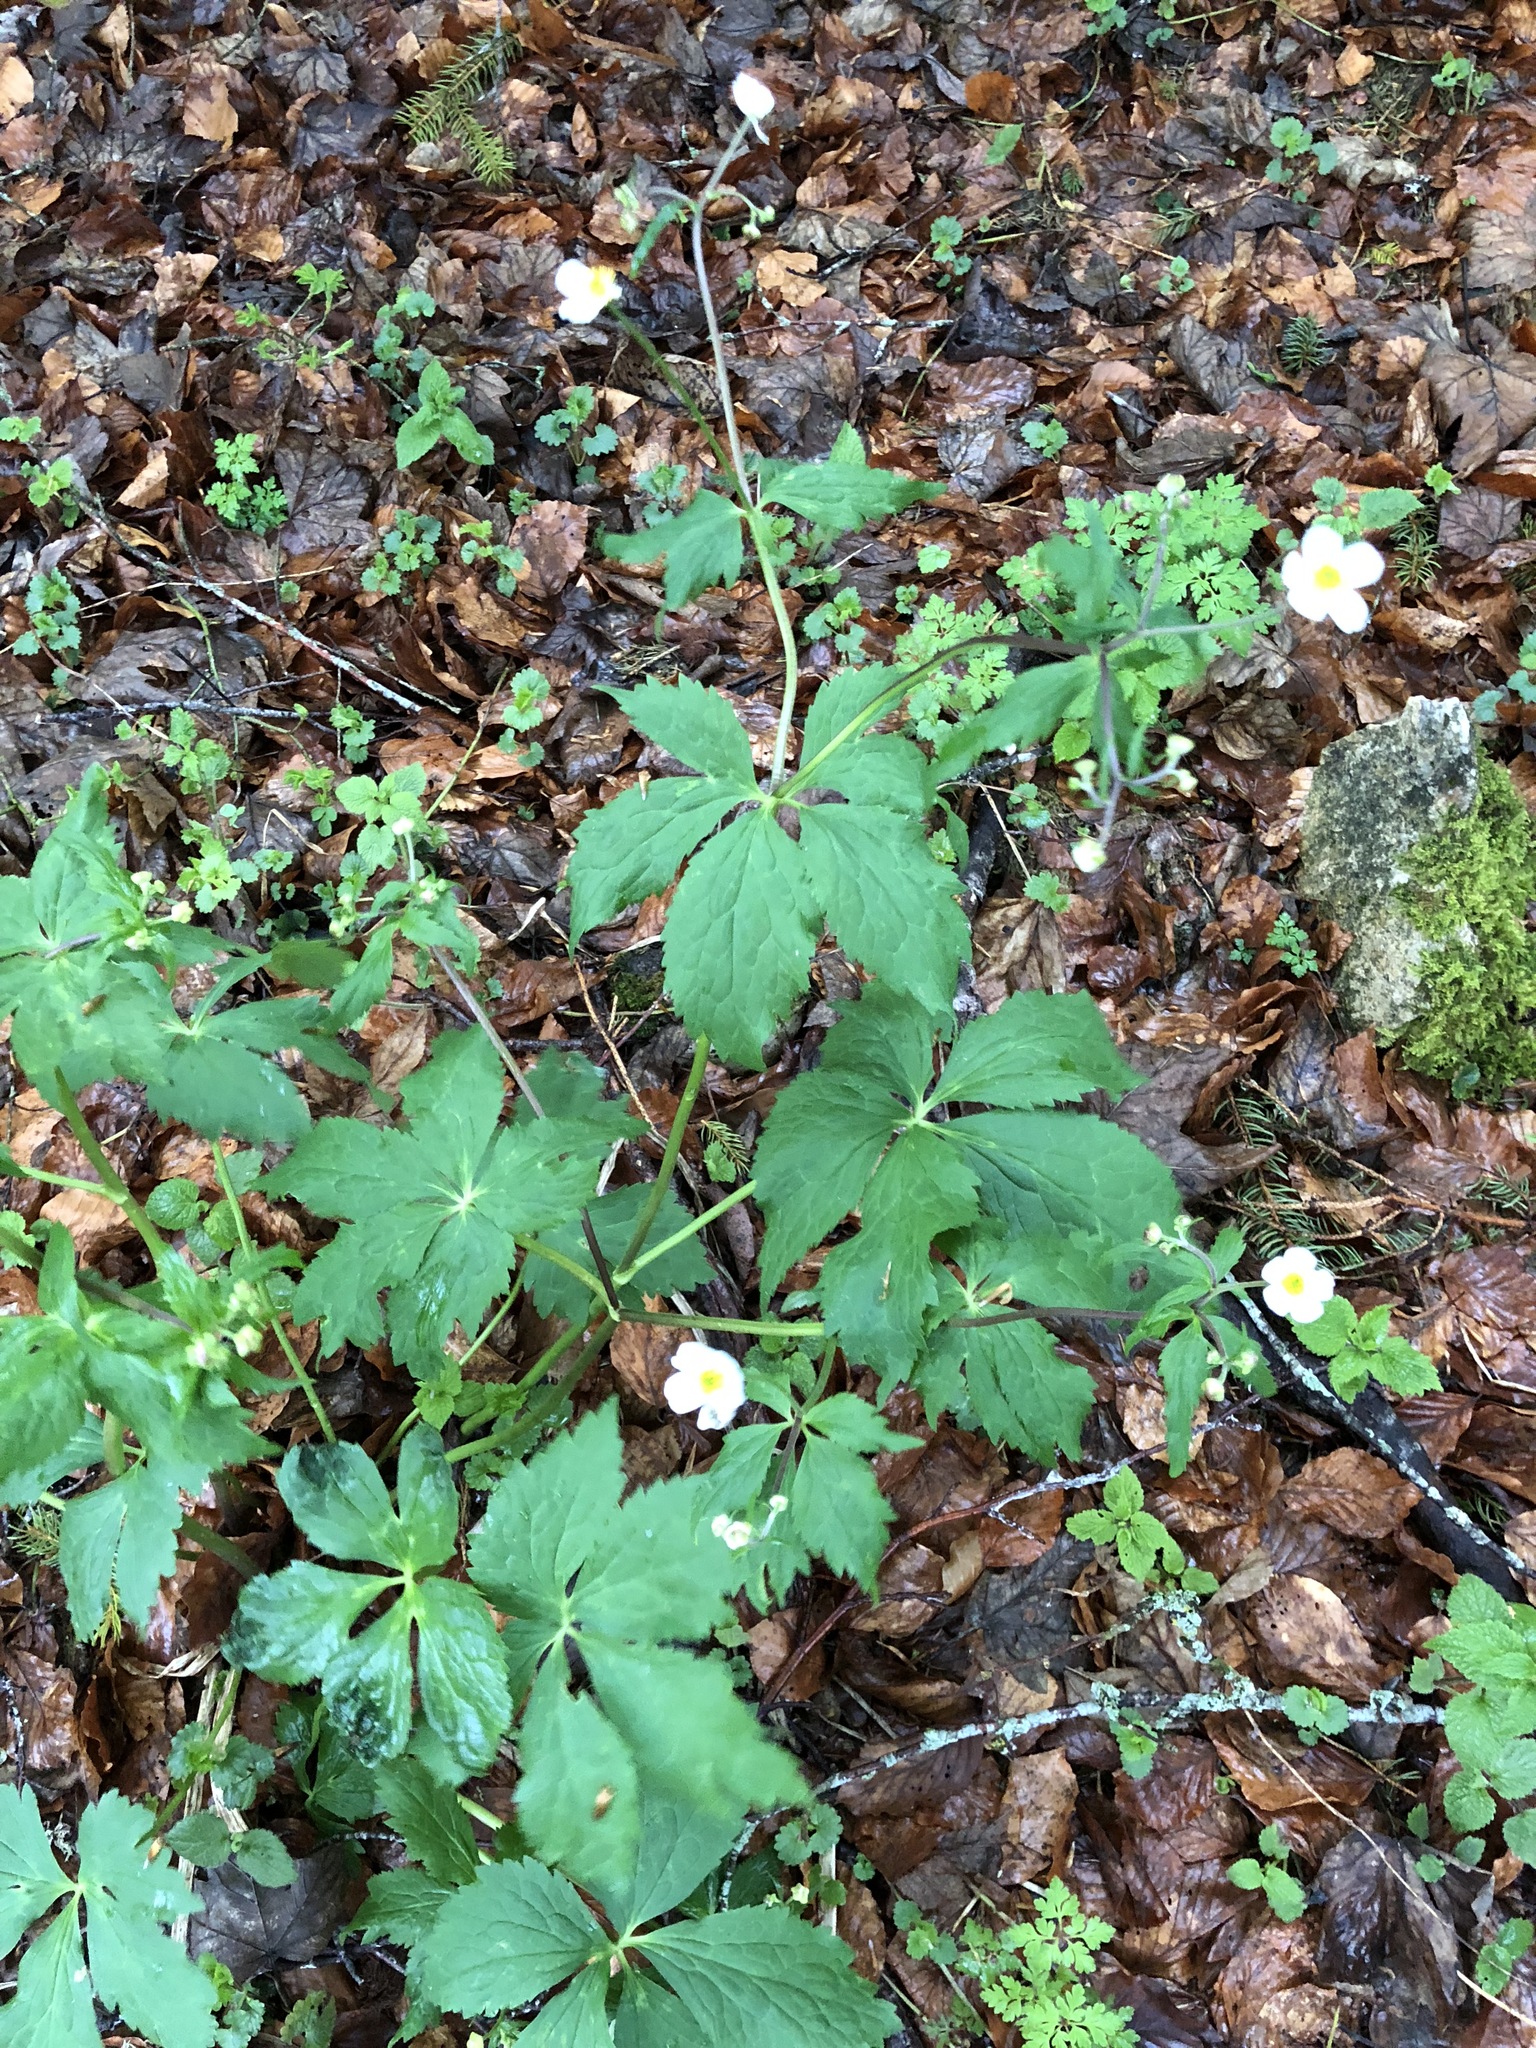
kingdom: Plantae
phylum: Tracheophyta
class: Magnoliopsida
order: Ranunculales
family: Ranunculaceae
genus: Ranunculus
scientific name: Ranunculus aconitifolius
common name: Aconite-leaved buttercup
